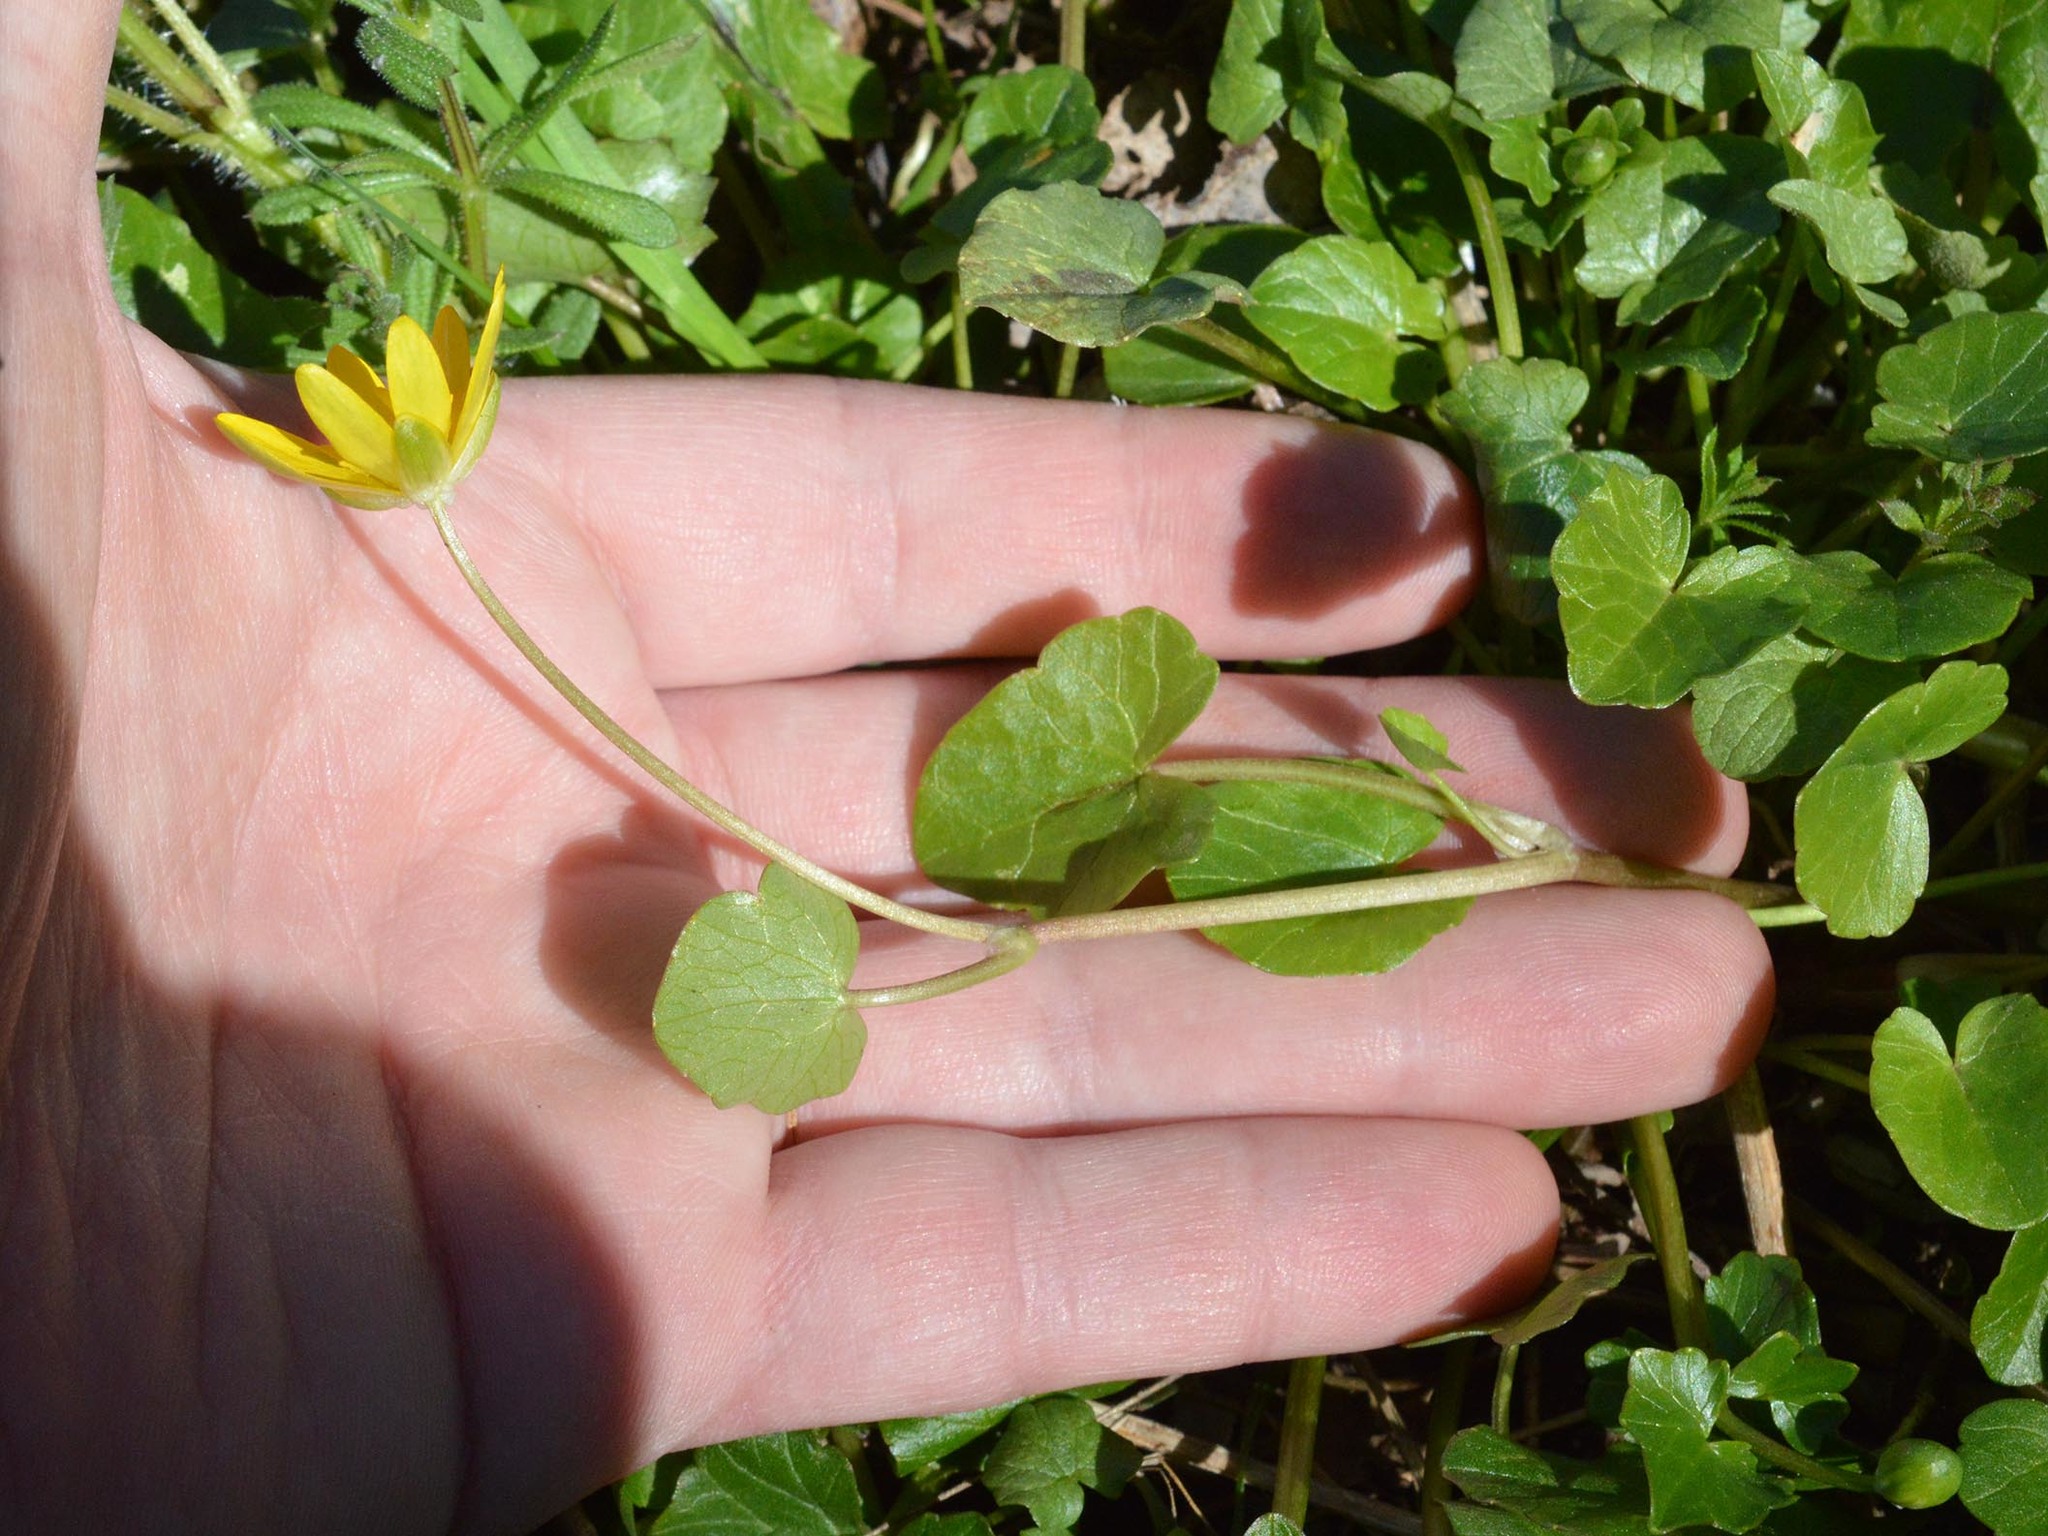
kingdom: Plantae
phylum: Tracheophyta
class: Magnoliopsida
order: Ranunculales
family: Ranunculaceae
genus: Ficaria
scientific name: Ficaria verna
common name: Lesser celandine
